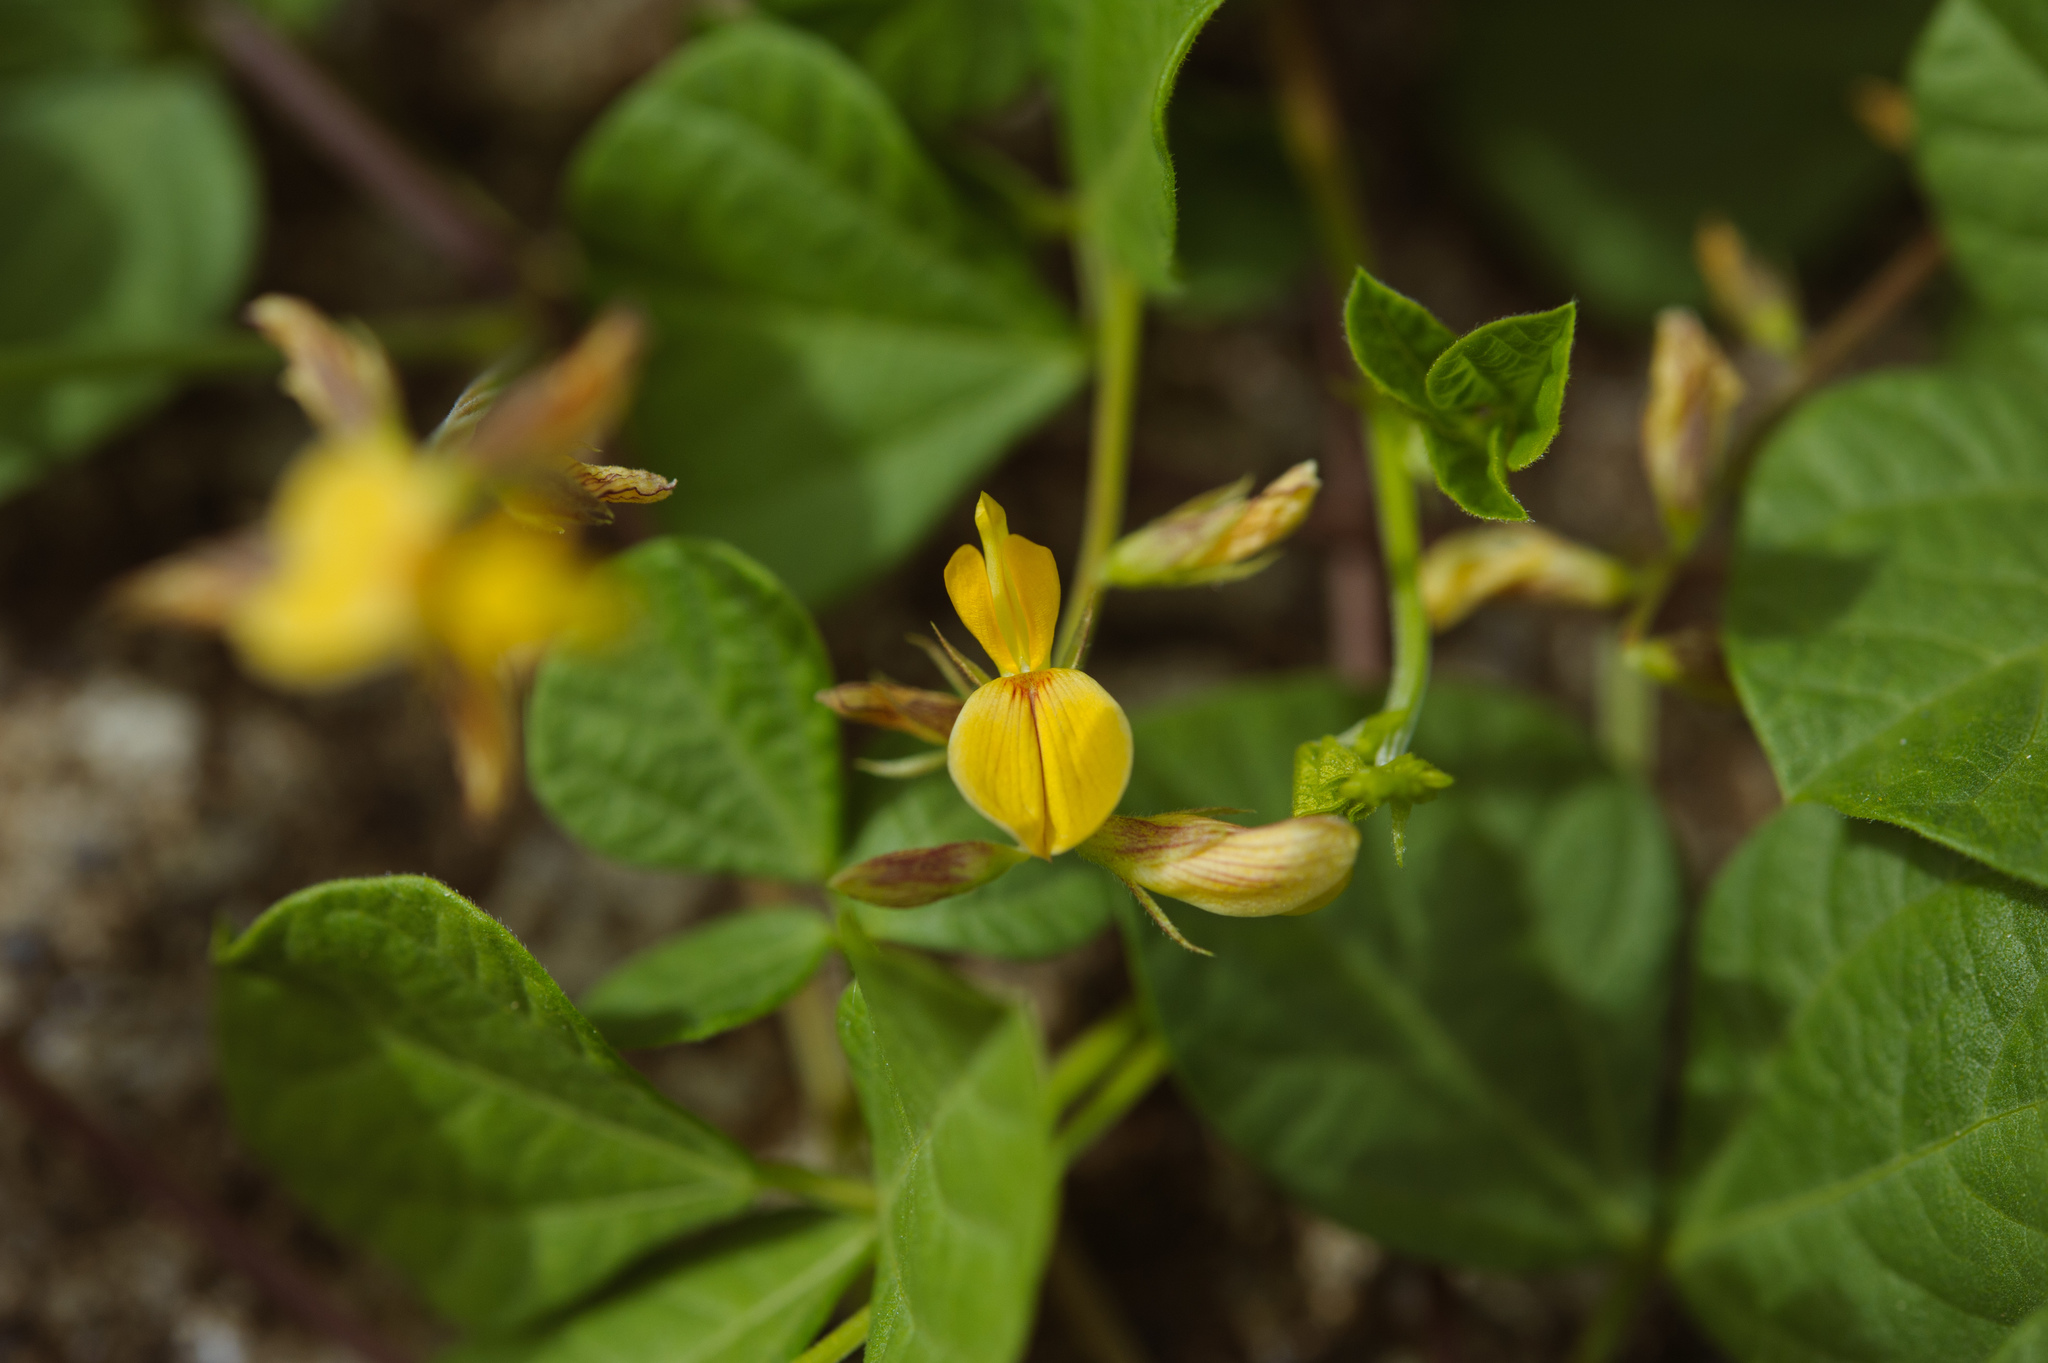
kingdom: Plantae
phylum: Tracheophyta
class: Magnoliopsida
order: Fabales
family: Fabaceae
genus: Rhynchosia
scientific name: Rhynchosia minima
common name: Least snoutbean
